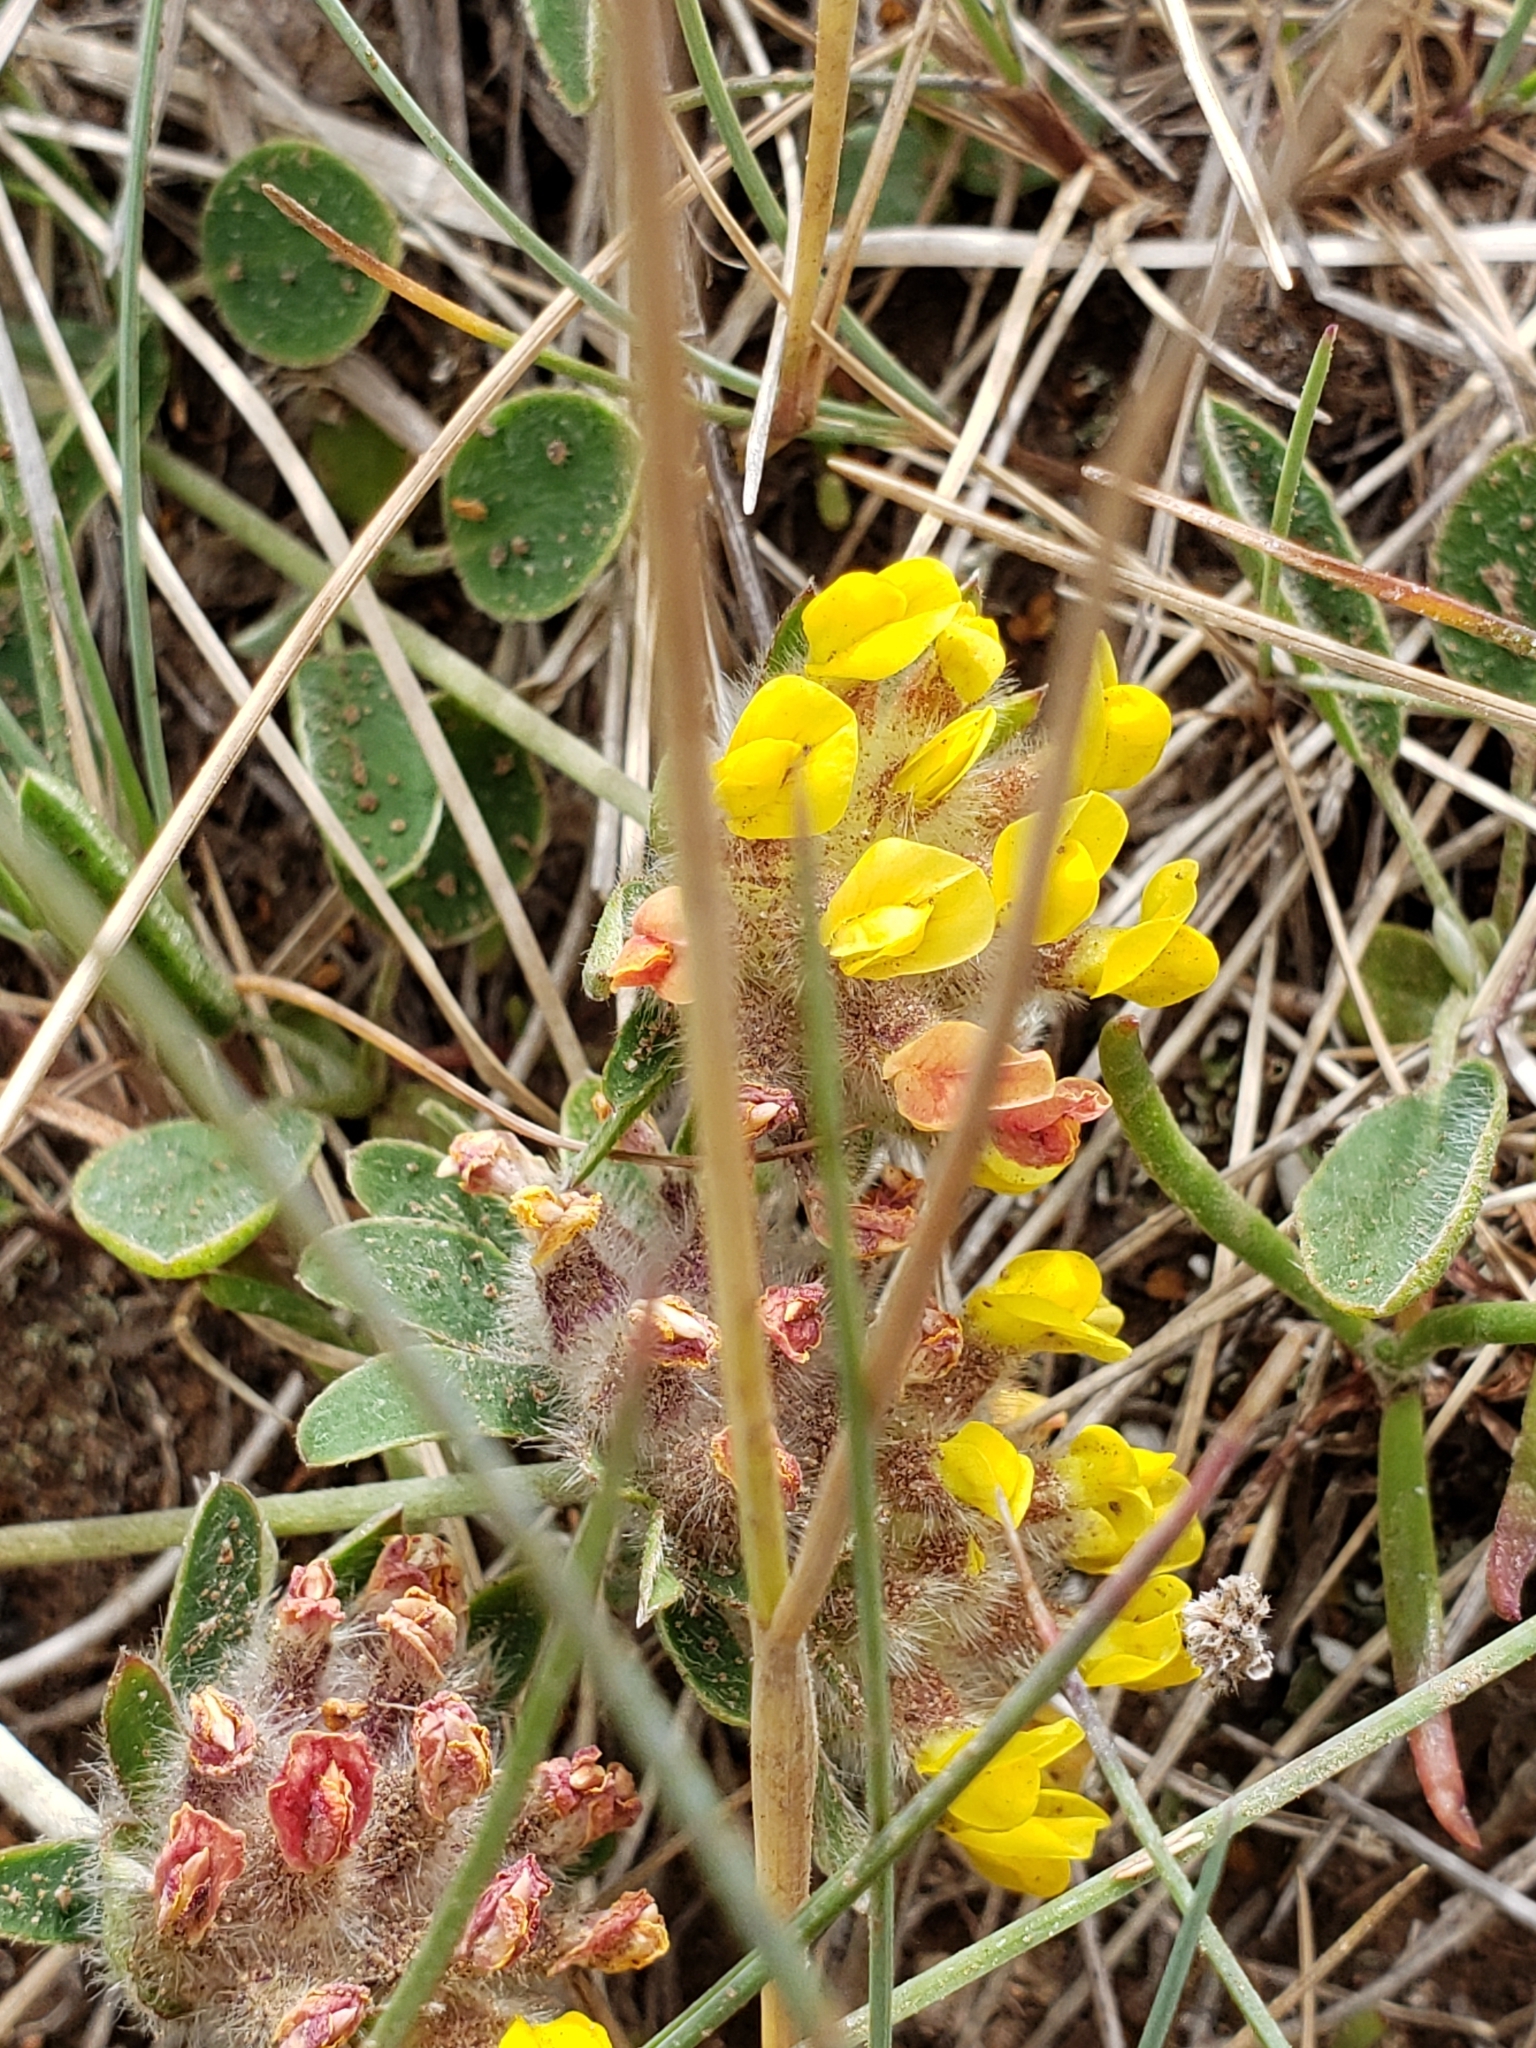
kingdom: Plantae
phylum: Tracheophyta
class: Magnoliopsida
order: Fabales
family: Fabaceae
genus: Anthyllis
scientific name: Anthyllis vulneraria
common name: Kidney vetch
